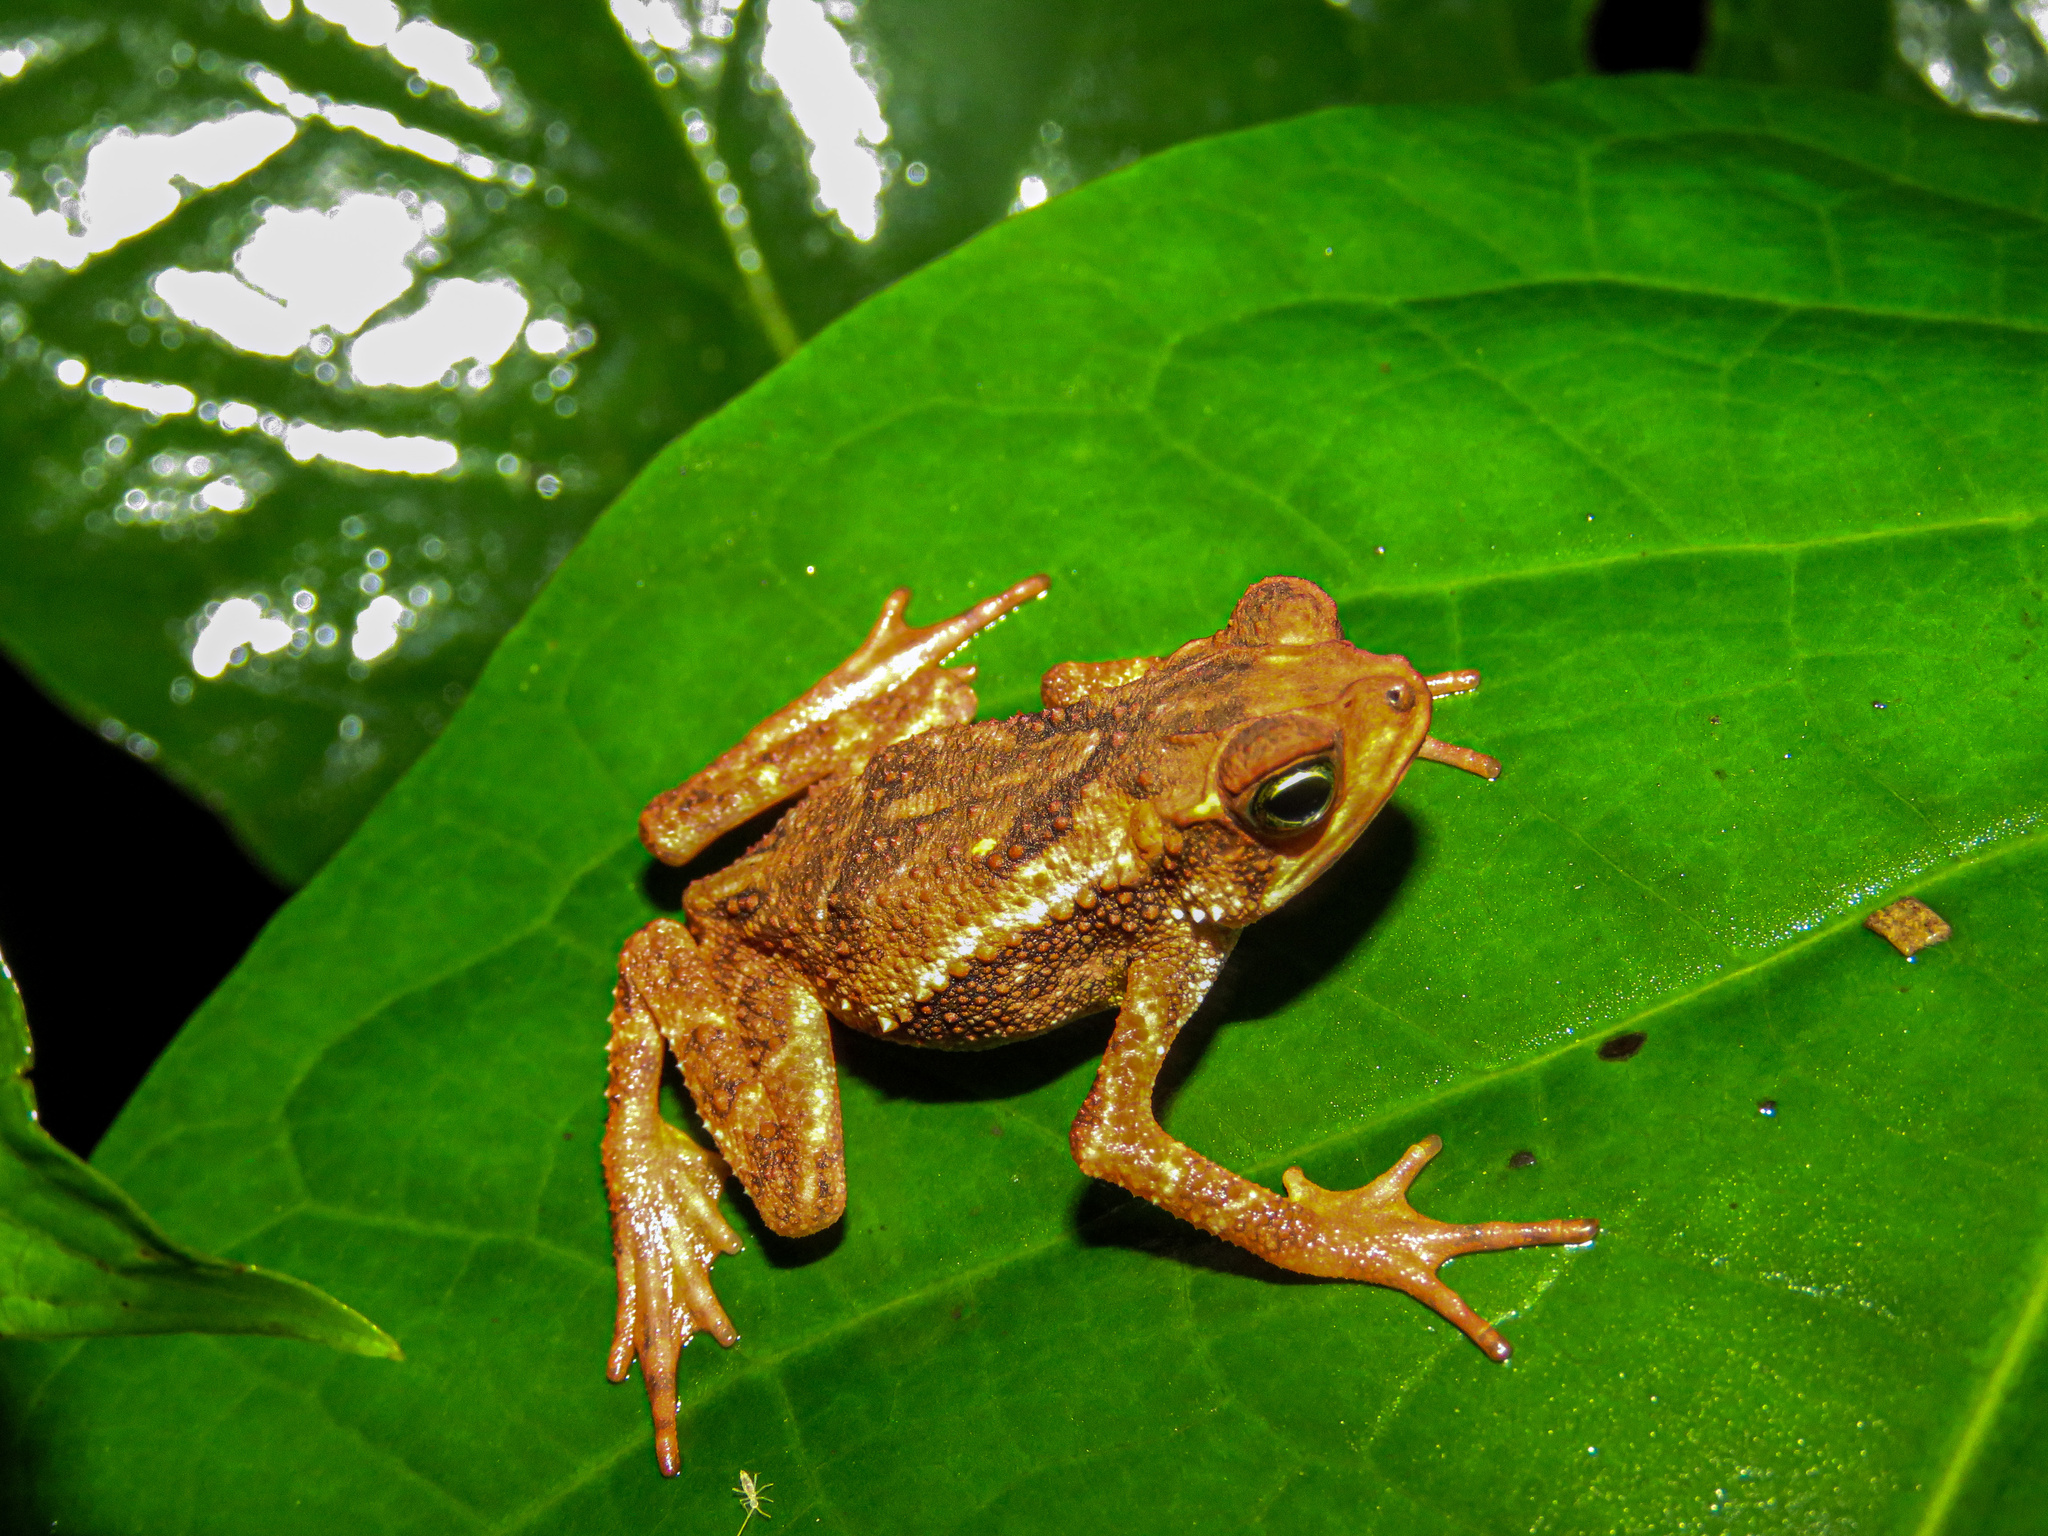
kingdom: Animalia
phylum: Chordata
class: Amphibia
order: Anura
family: Bufonidae
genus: Incilius
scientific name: Incilius coniferus
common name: Evergreen toad
